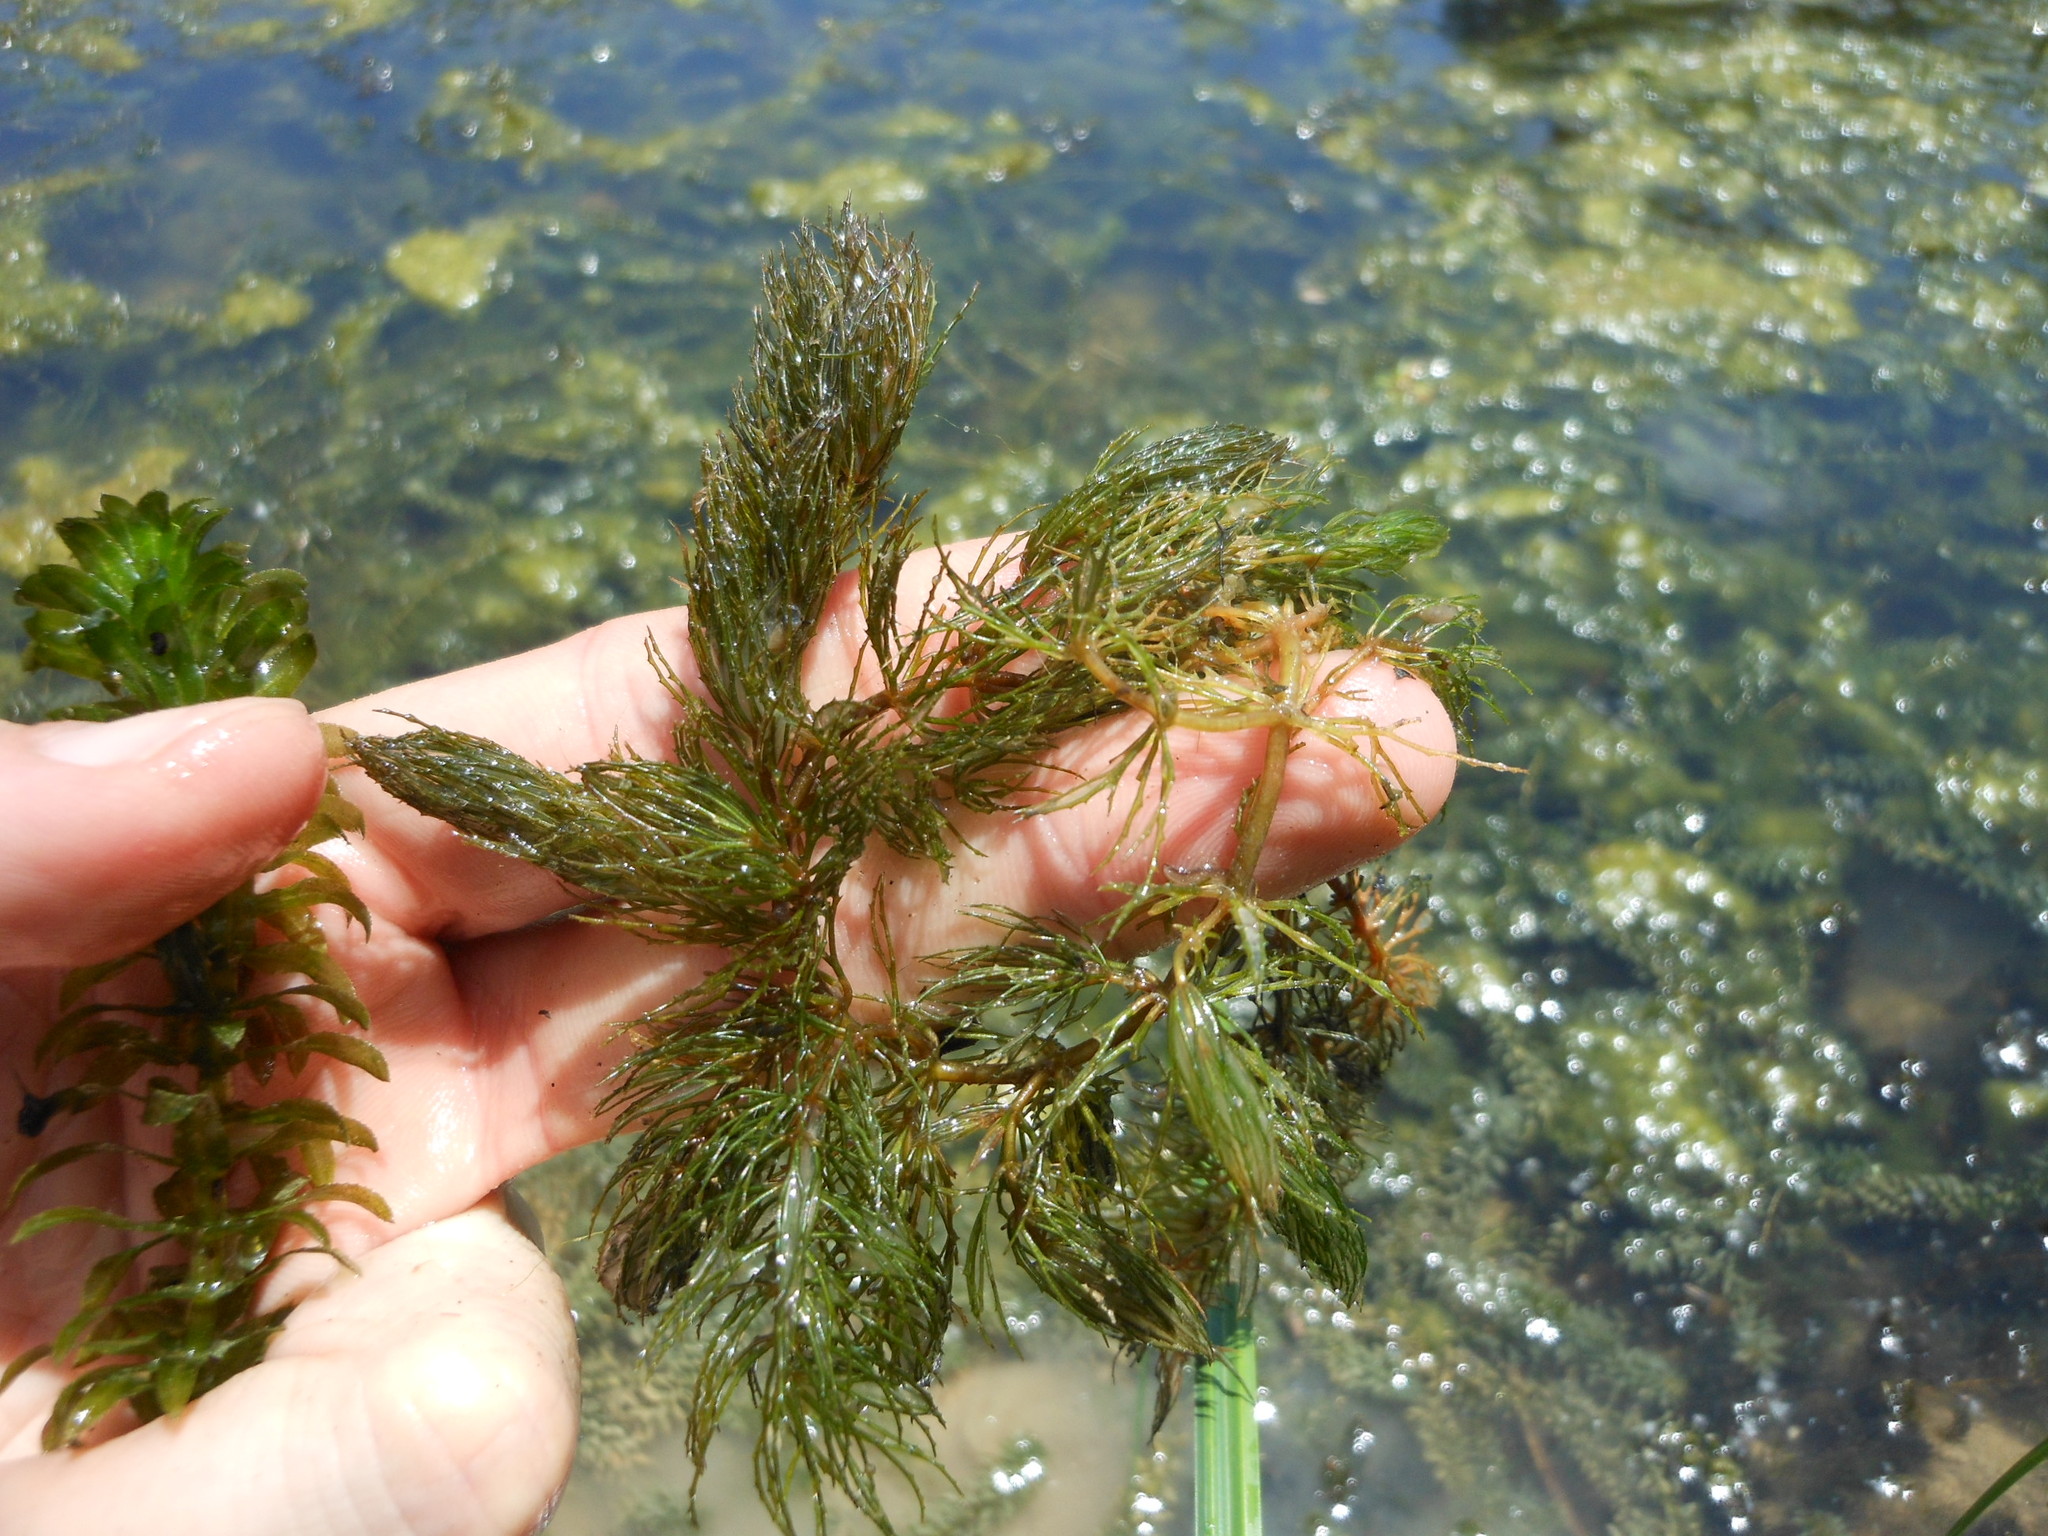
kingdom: Plantae
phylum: Tracheophyta
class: Magnoliopsida
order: Ceratophyllales
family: Ceratophyllaceae
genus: Ceratophyllum
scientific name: Ceratophyllum demersum
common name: Rigid hornwort
